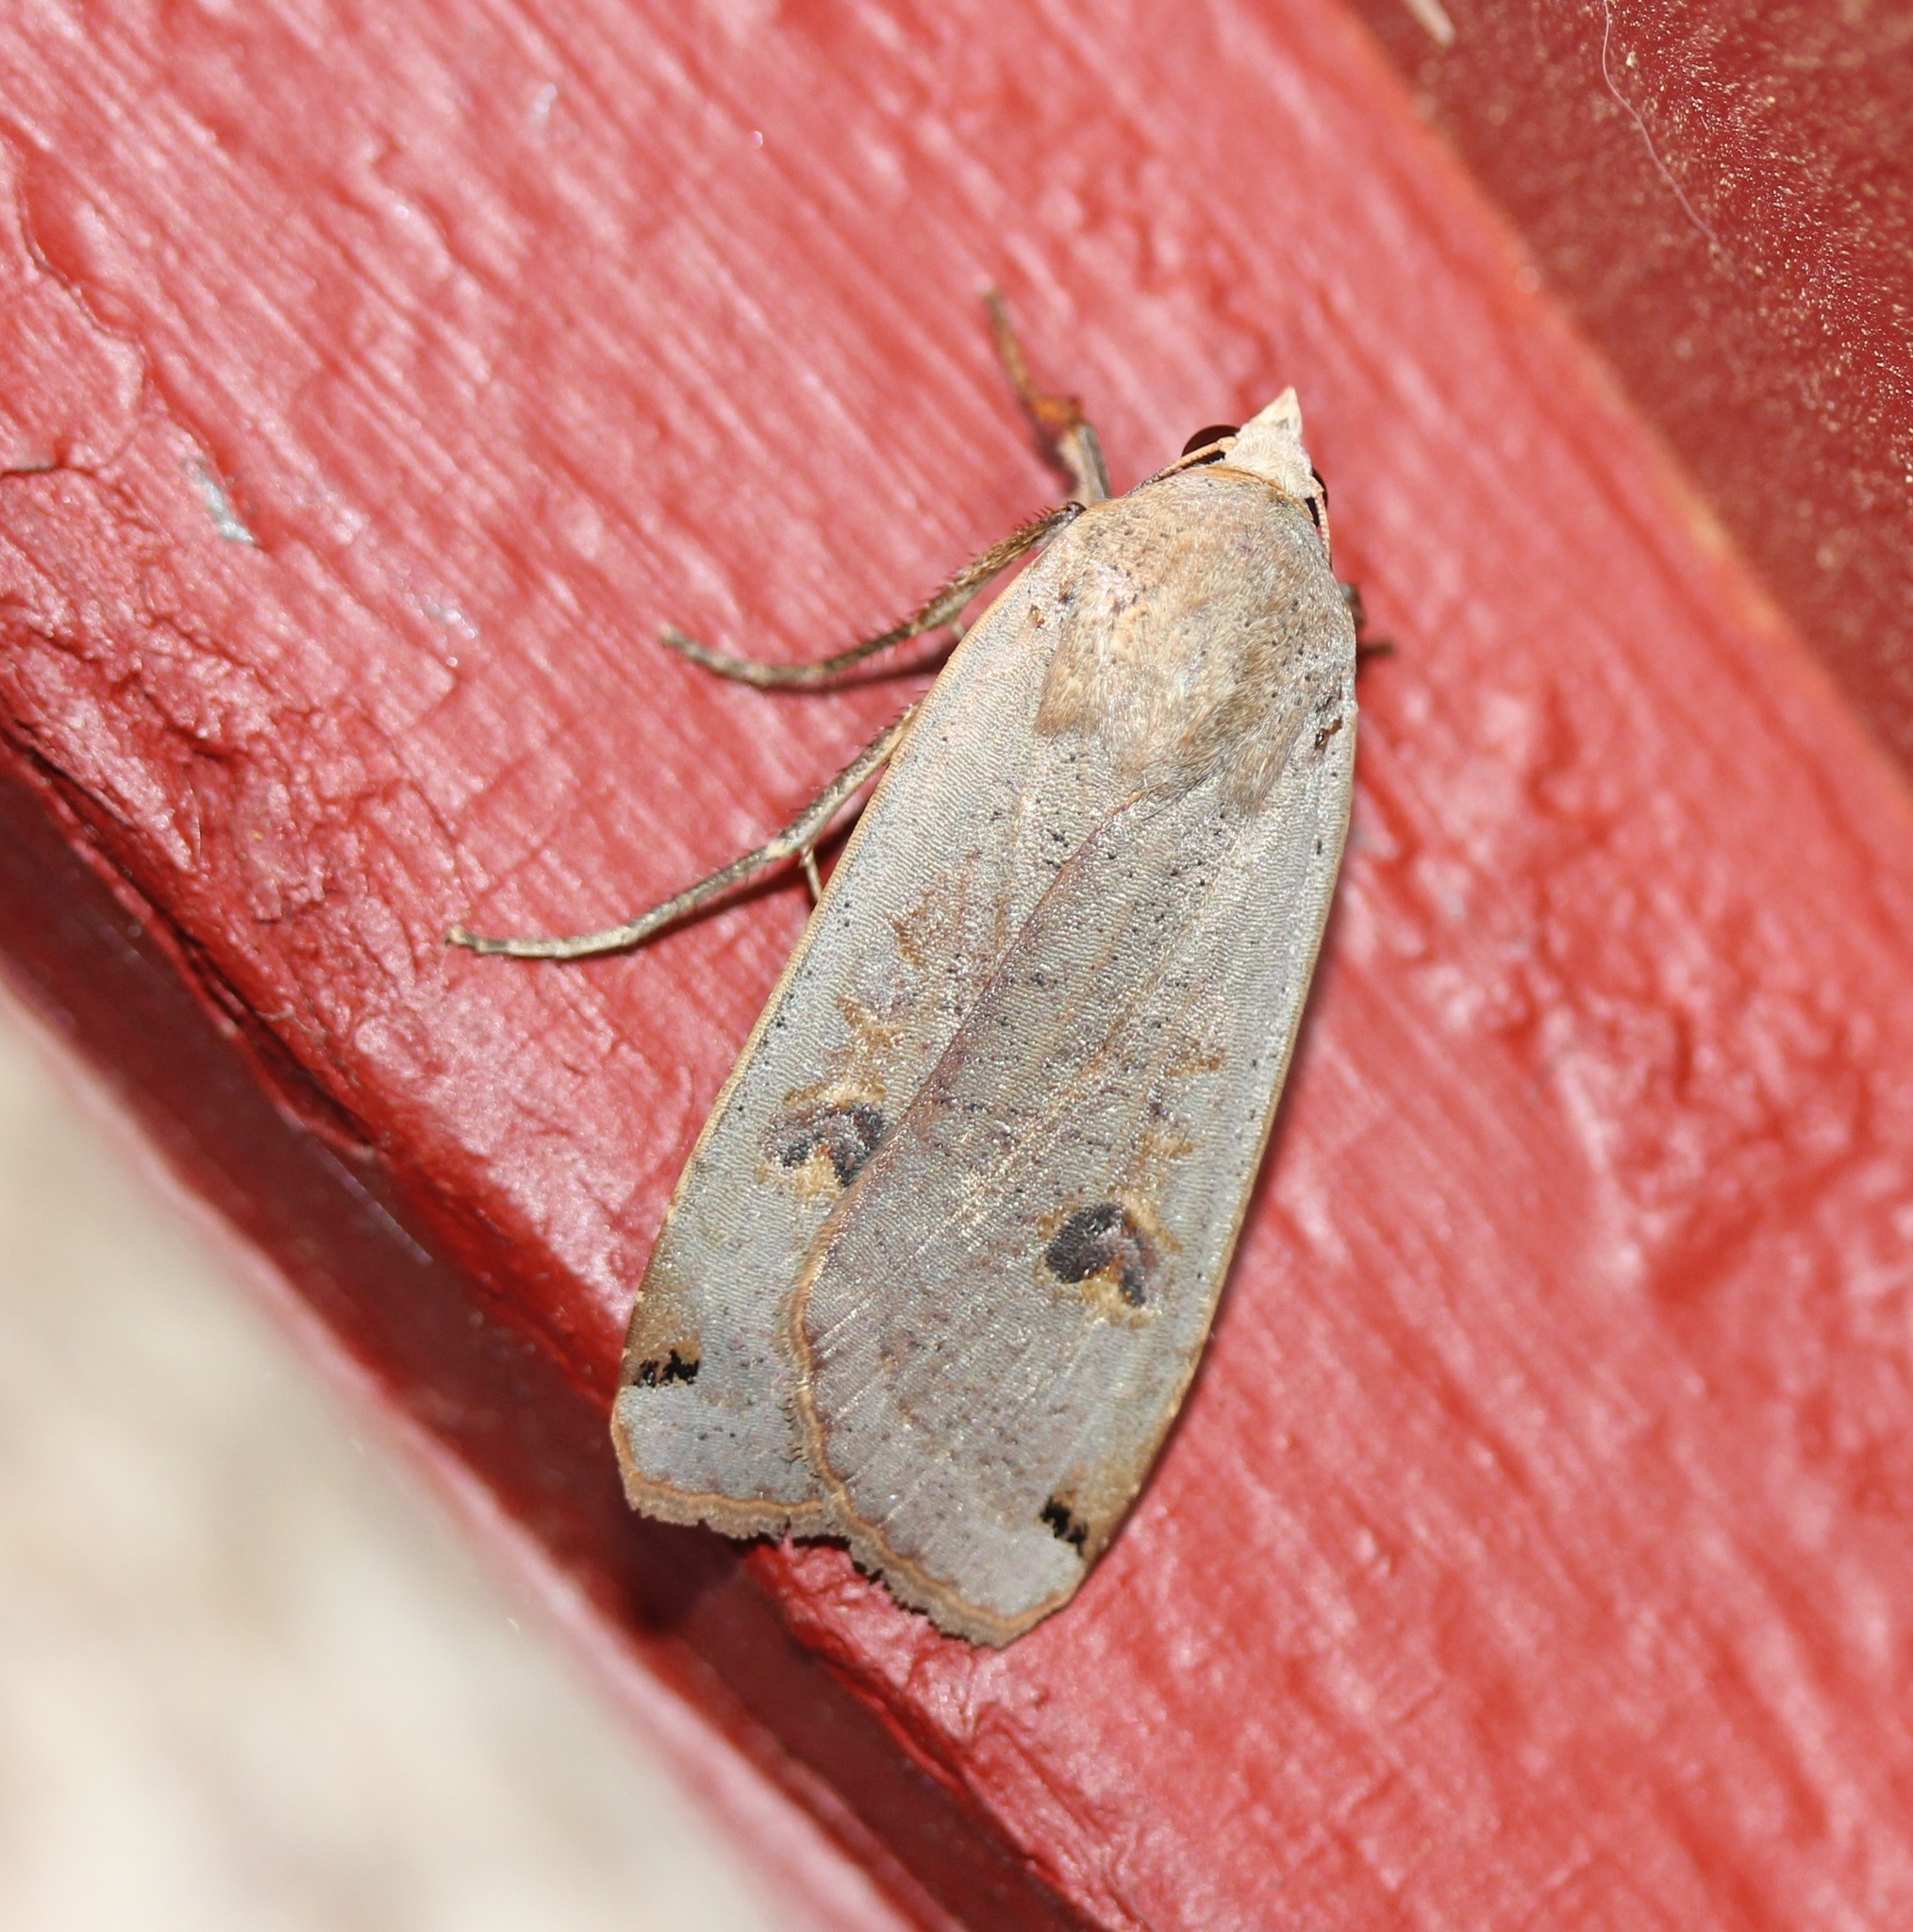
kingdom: Animalia
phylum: Arthropoda
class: Insecta
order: Lepidoptera
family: Noctuidae
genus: Noctua
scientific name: Noctua pronuba
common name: Large yellow underwing
